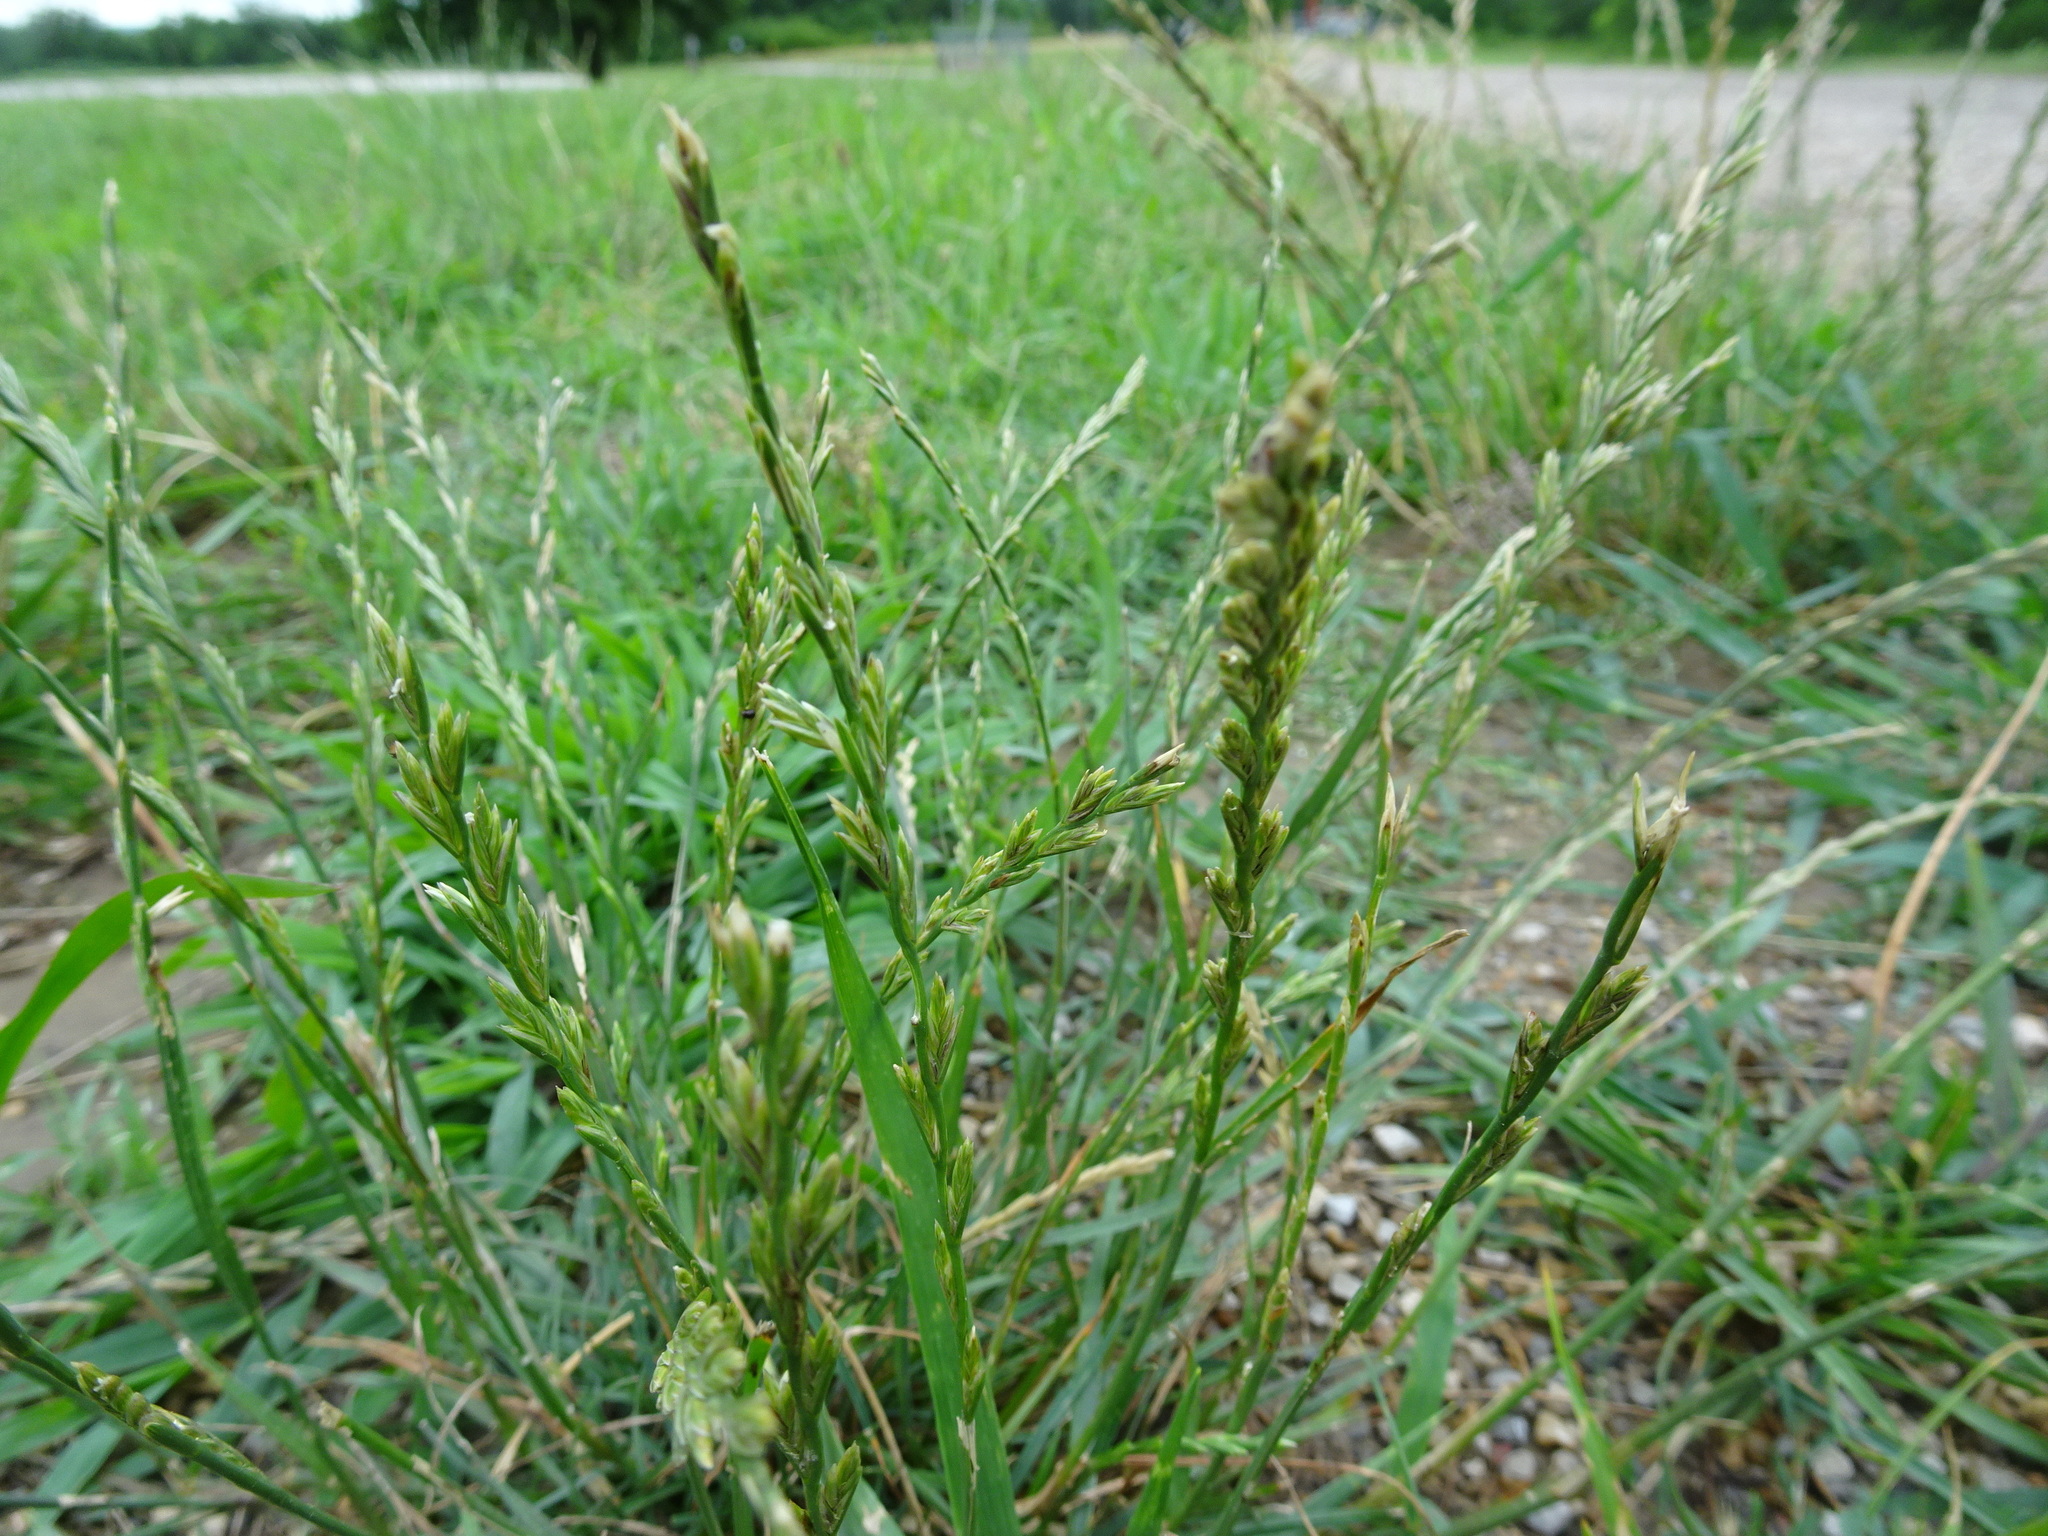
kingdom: Plantae
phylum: Tracheophyta
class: Liliopsida
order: Poales
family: Poaceae
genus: Lolium
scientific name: Lolium perenne
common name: Perennial ryegrass
